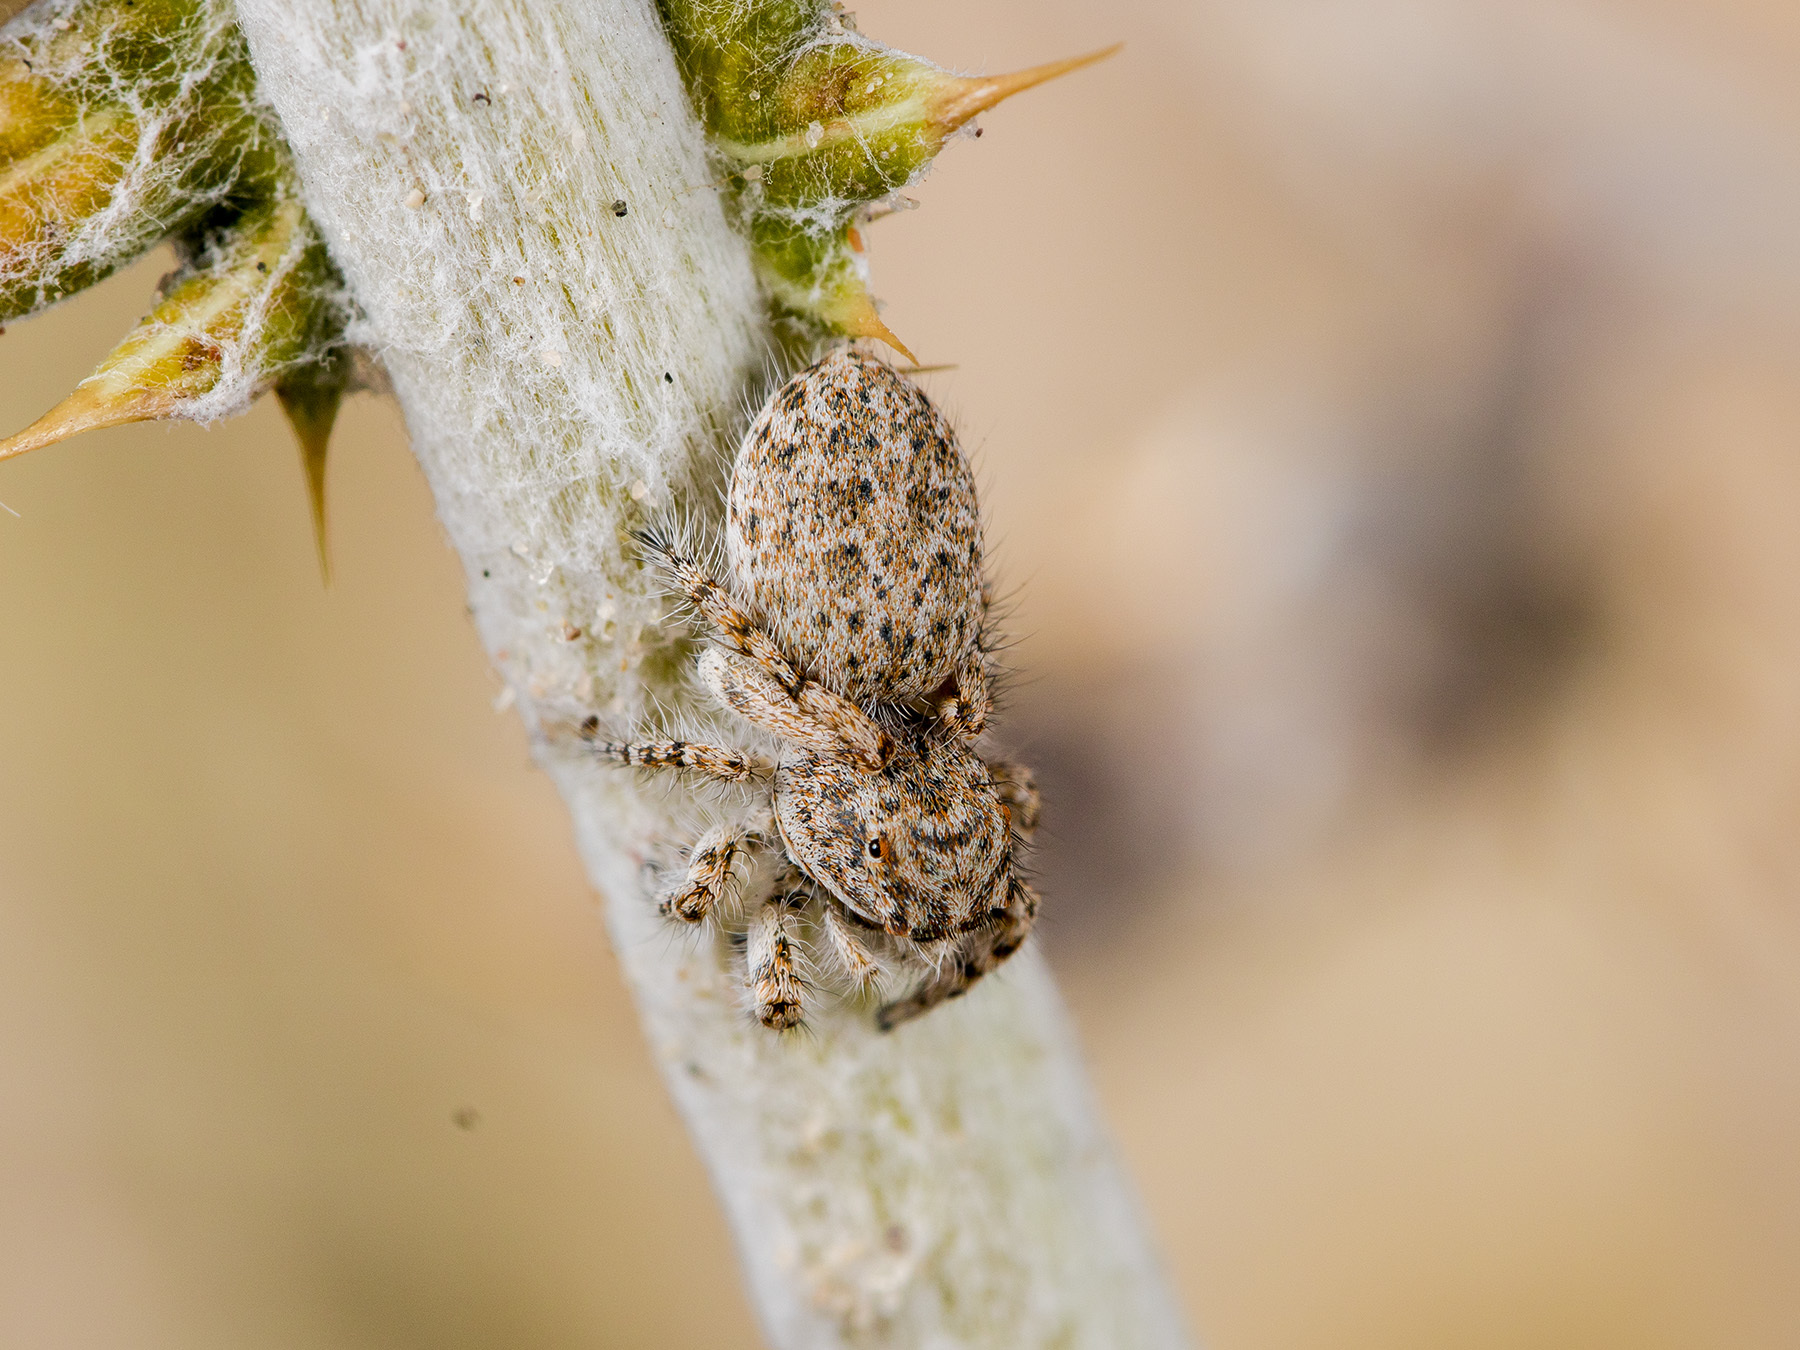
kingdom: Animalia
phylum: Arthropoda
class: Arachnida
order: Araneae
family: Salticidae
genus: Yllenus
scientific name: Yllenus uiguricus
